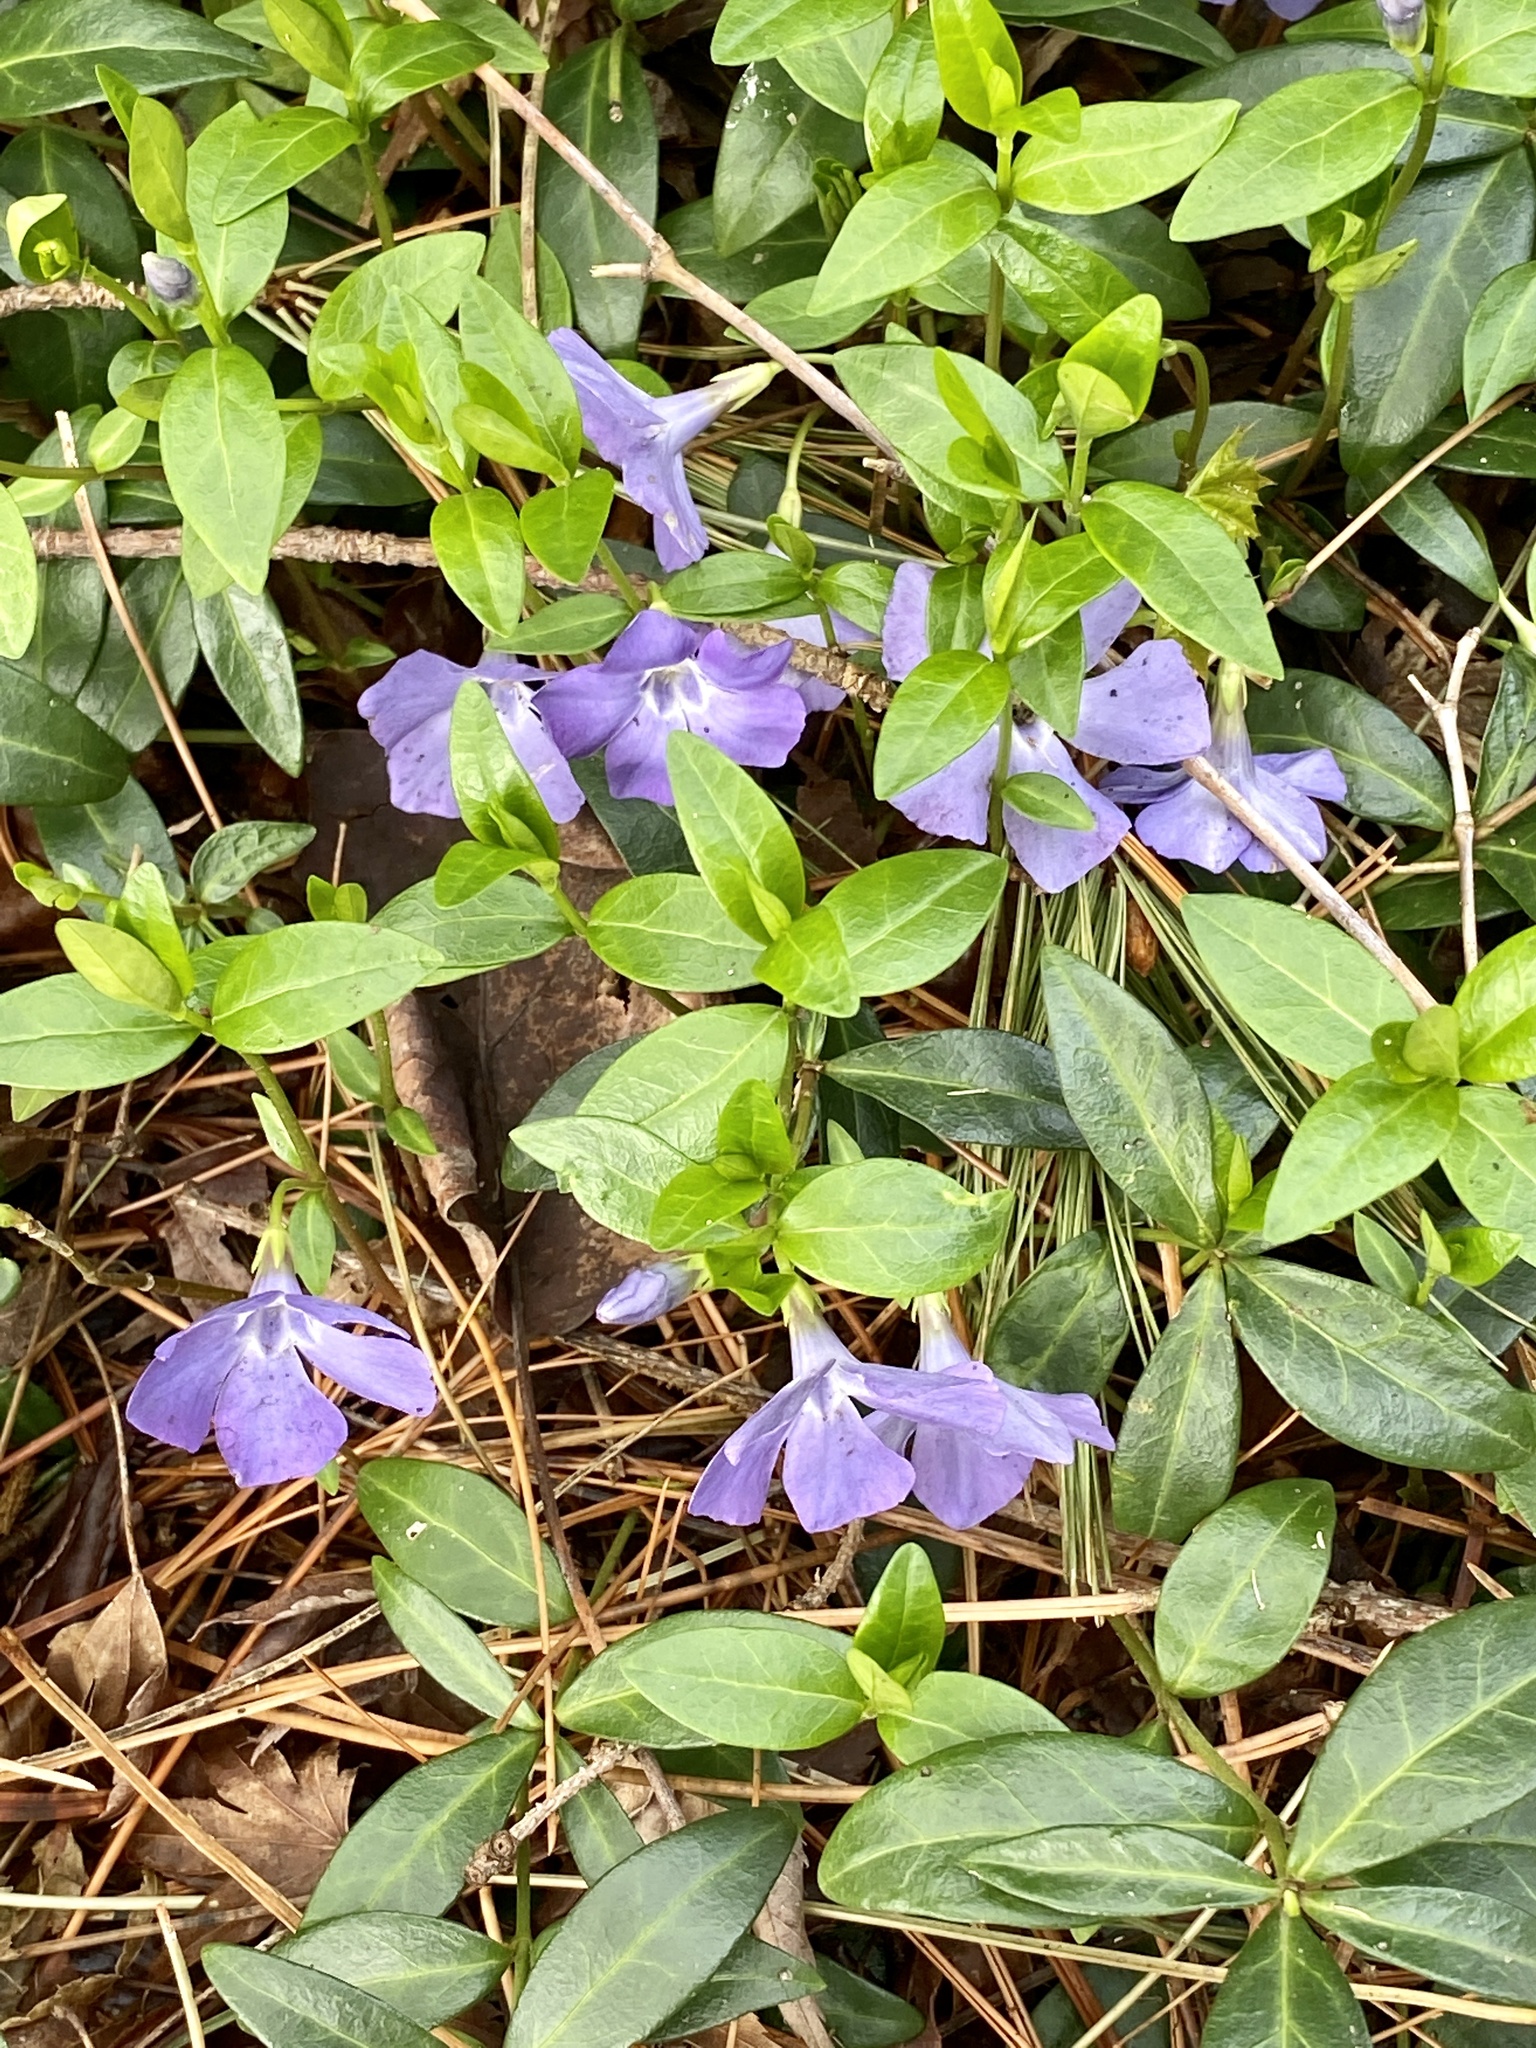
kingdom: Plantae
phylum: Tracheophyta
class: Magnoliopsida
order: Gentianales
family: Apocynaceae
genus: Vinca
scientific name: Vinca minor
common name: Lesser periwinkle
